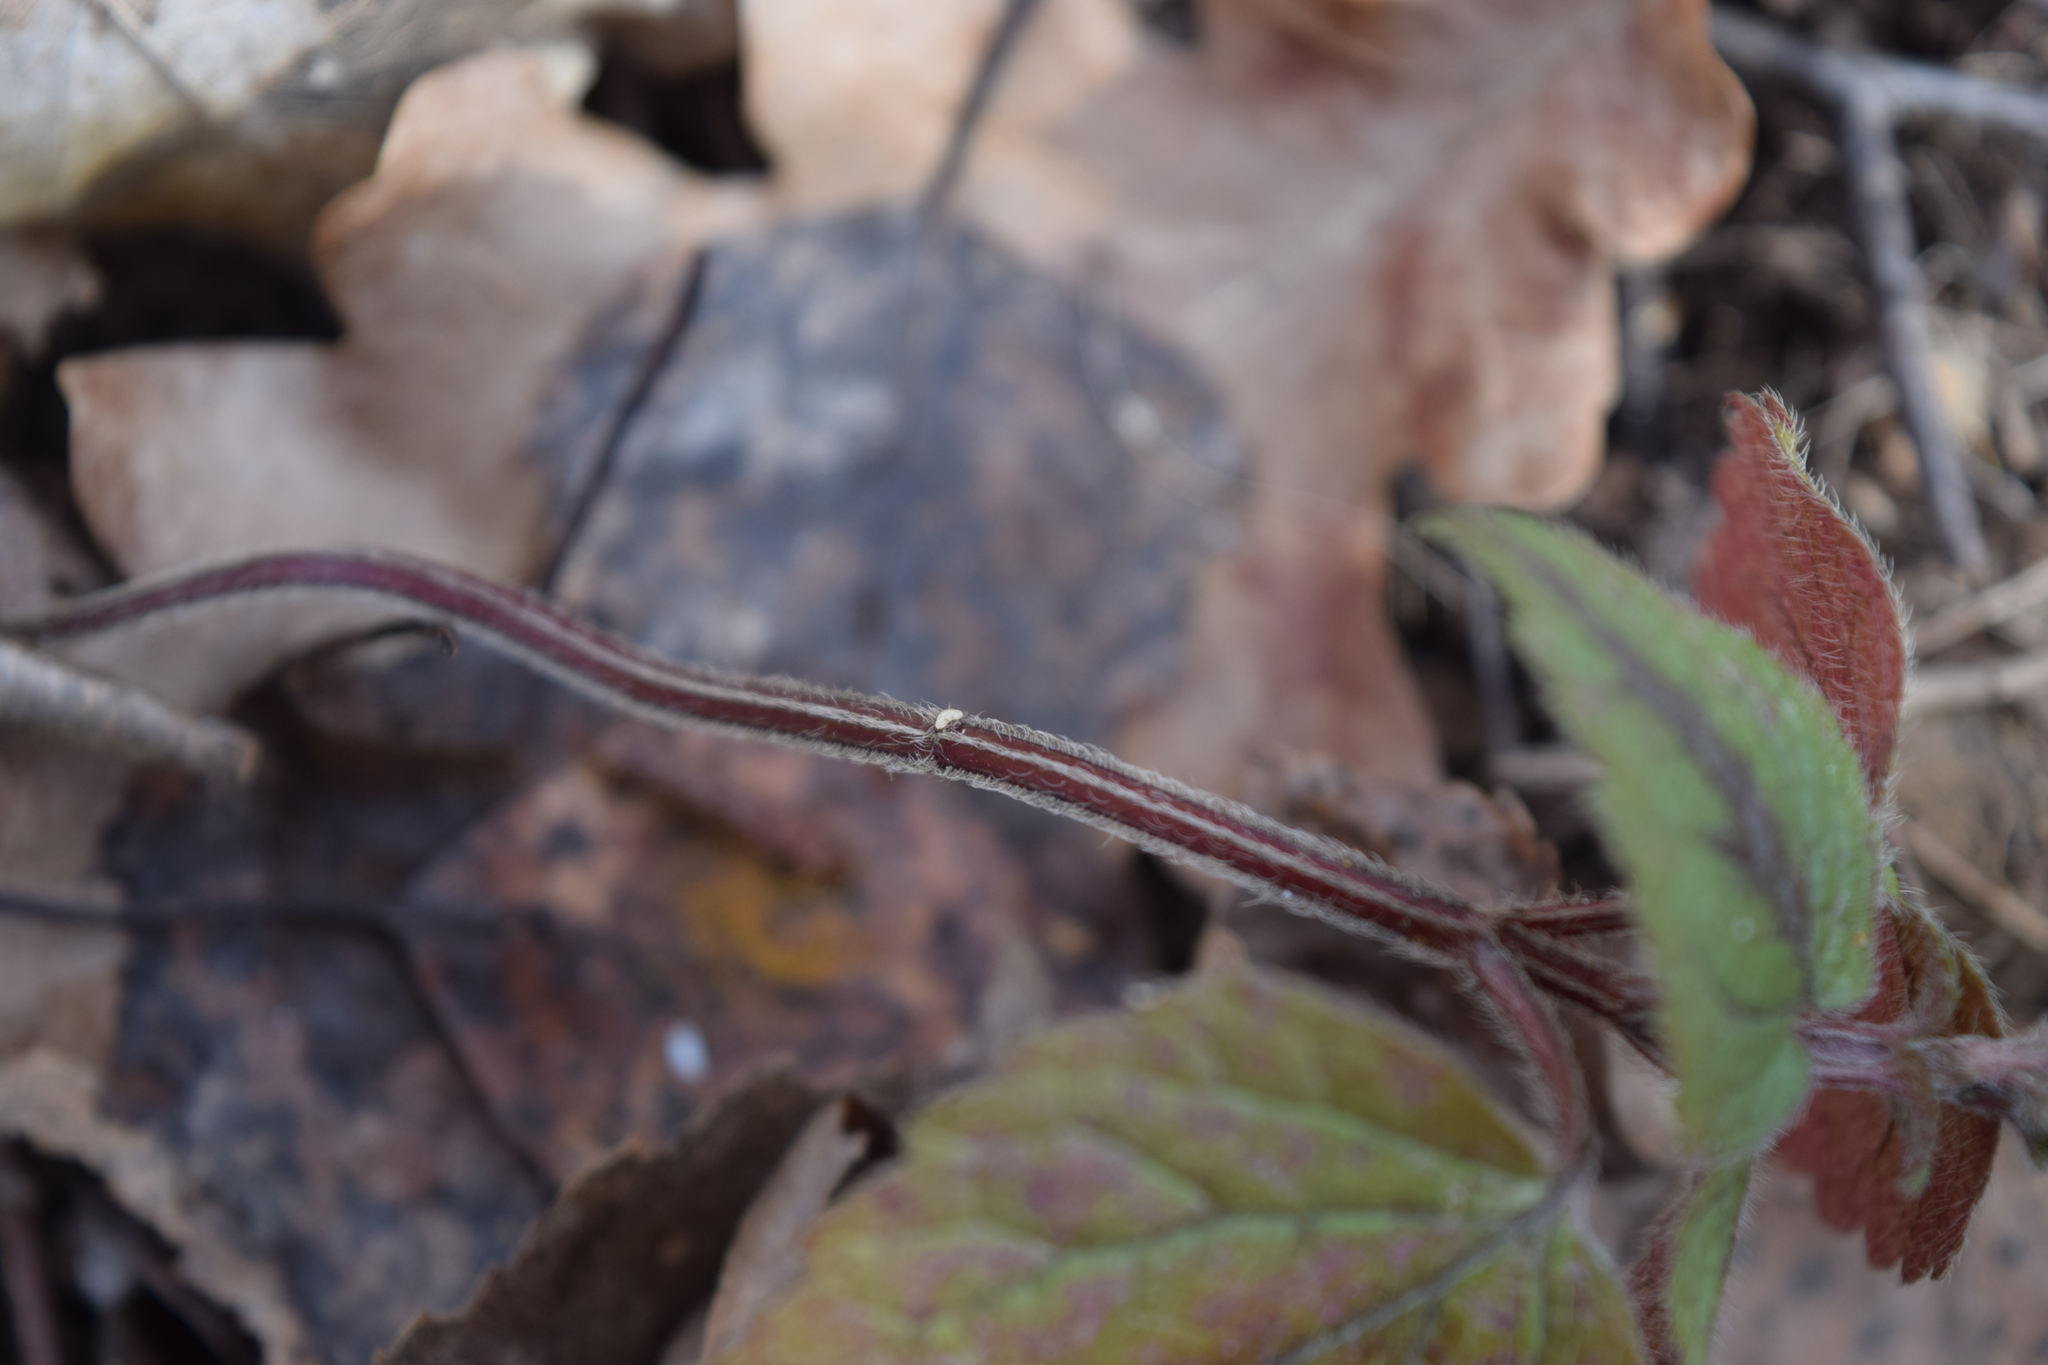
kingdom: Plantae
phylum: Tracheophyta
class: Magnoliopsida
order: Lamiales
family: Lamiaceae
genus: Lamium
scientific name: Lamium maculatum
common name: Spotted dead-nettle
